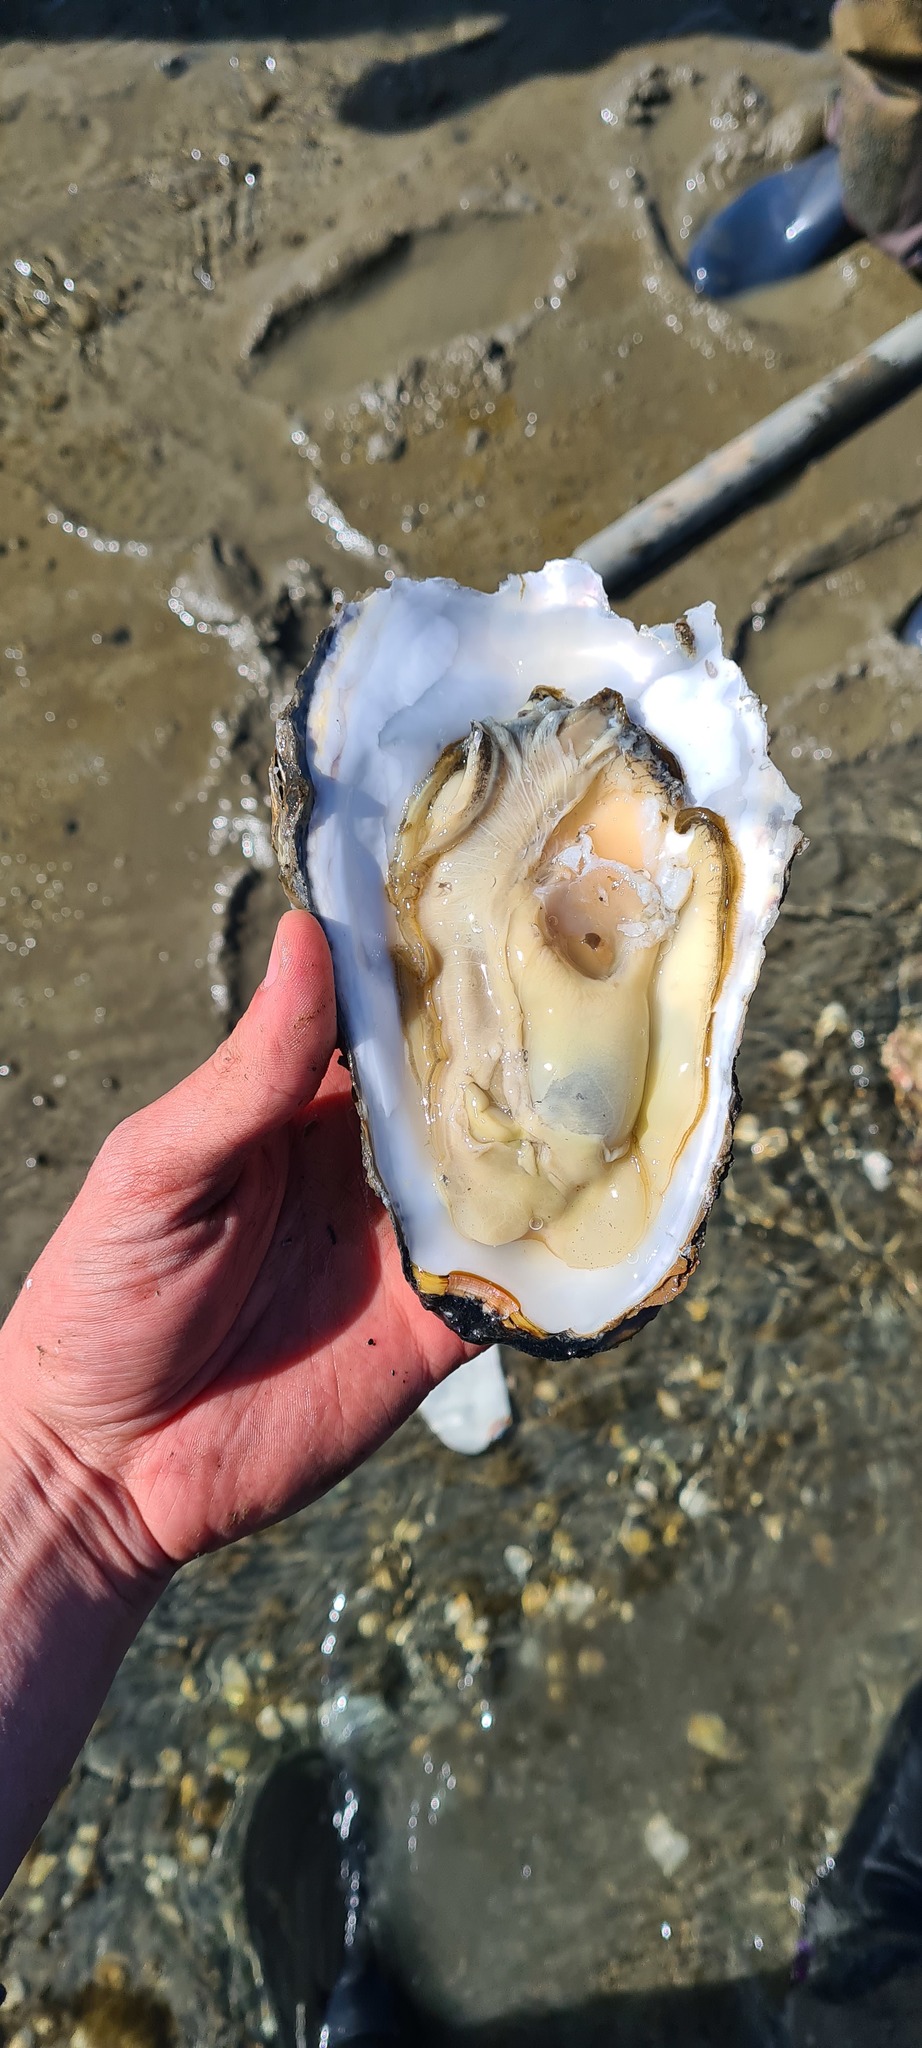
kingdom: Animalia
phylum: Mollusca
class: Bivalvia
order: Ostreida
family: Ostreidae
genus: Magallana
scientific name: Magallana gigas
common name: Pacific oyster
